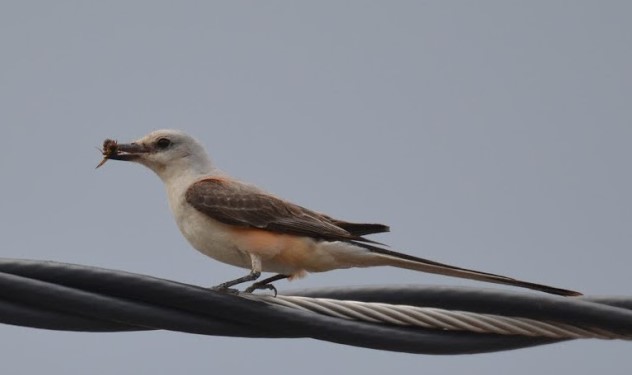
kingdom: Animalia
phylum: Chordata
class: Aves
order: Passeriformes
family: Tyrannidae
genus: Tyrannus
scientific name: Tyrannus forficatus
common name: Scissor-tailed flycatcher
